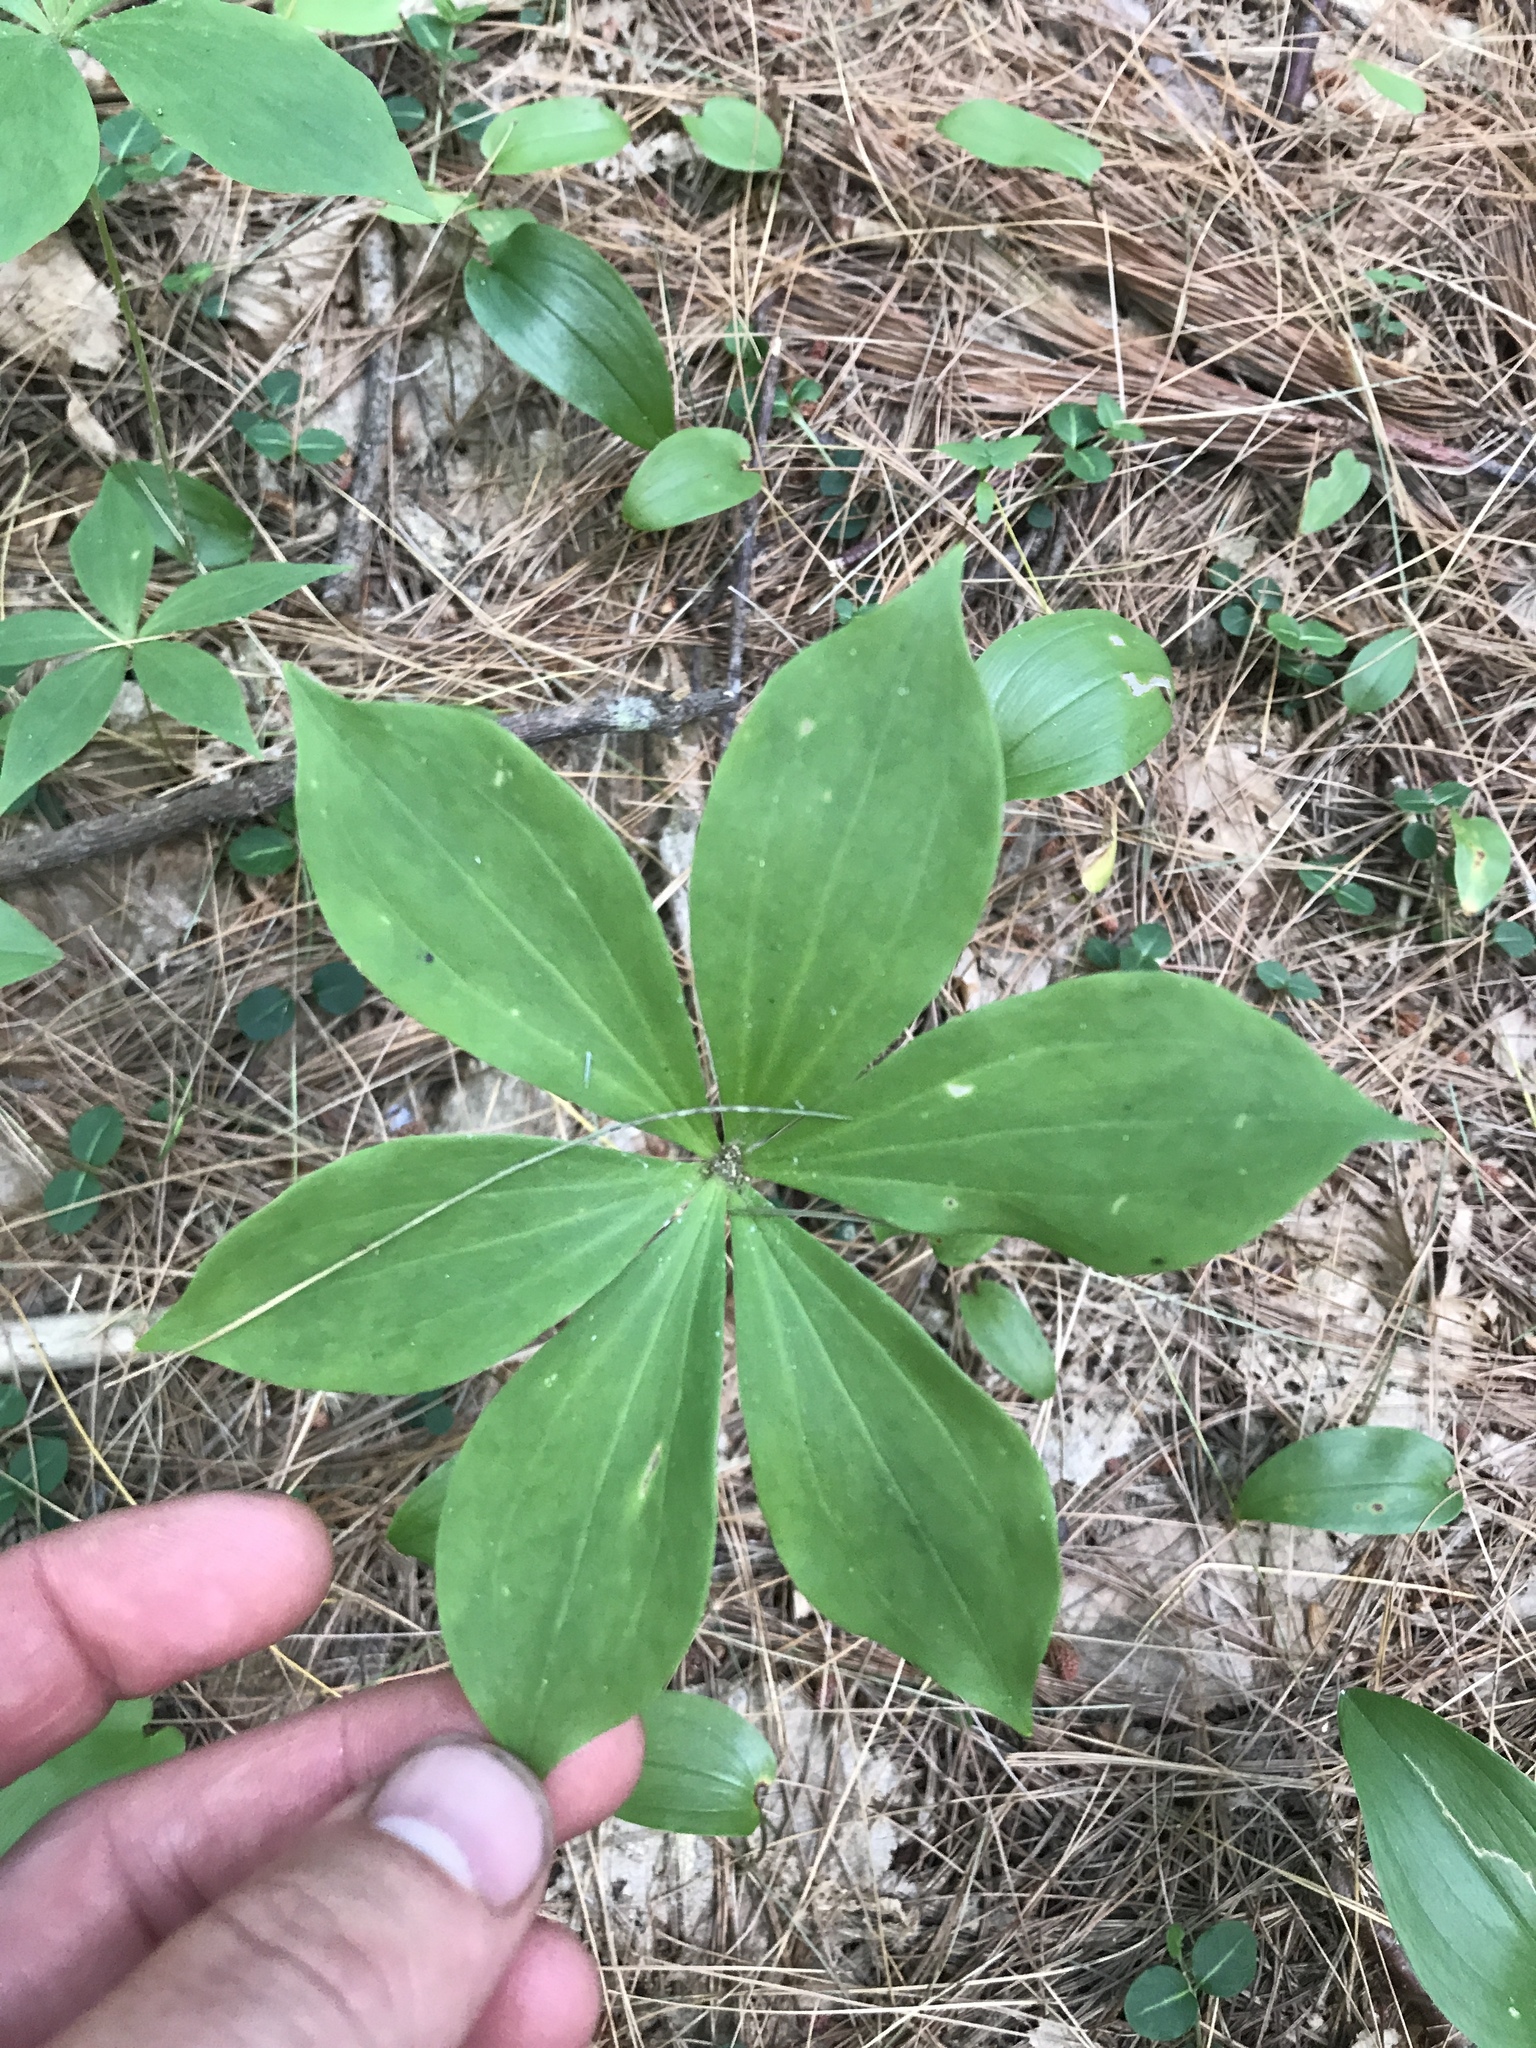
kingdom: Plantae
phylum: Tracheophyta
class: Liliopsida
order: Liliales
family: Liliaceae
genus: Medeola
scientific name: Medeola virginiana
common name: Indian cucumber-root
